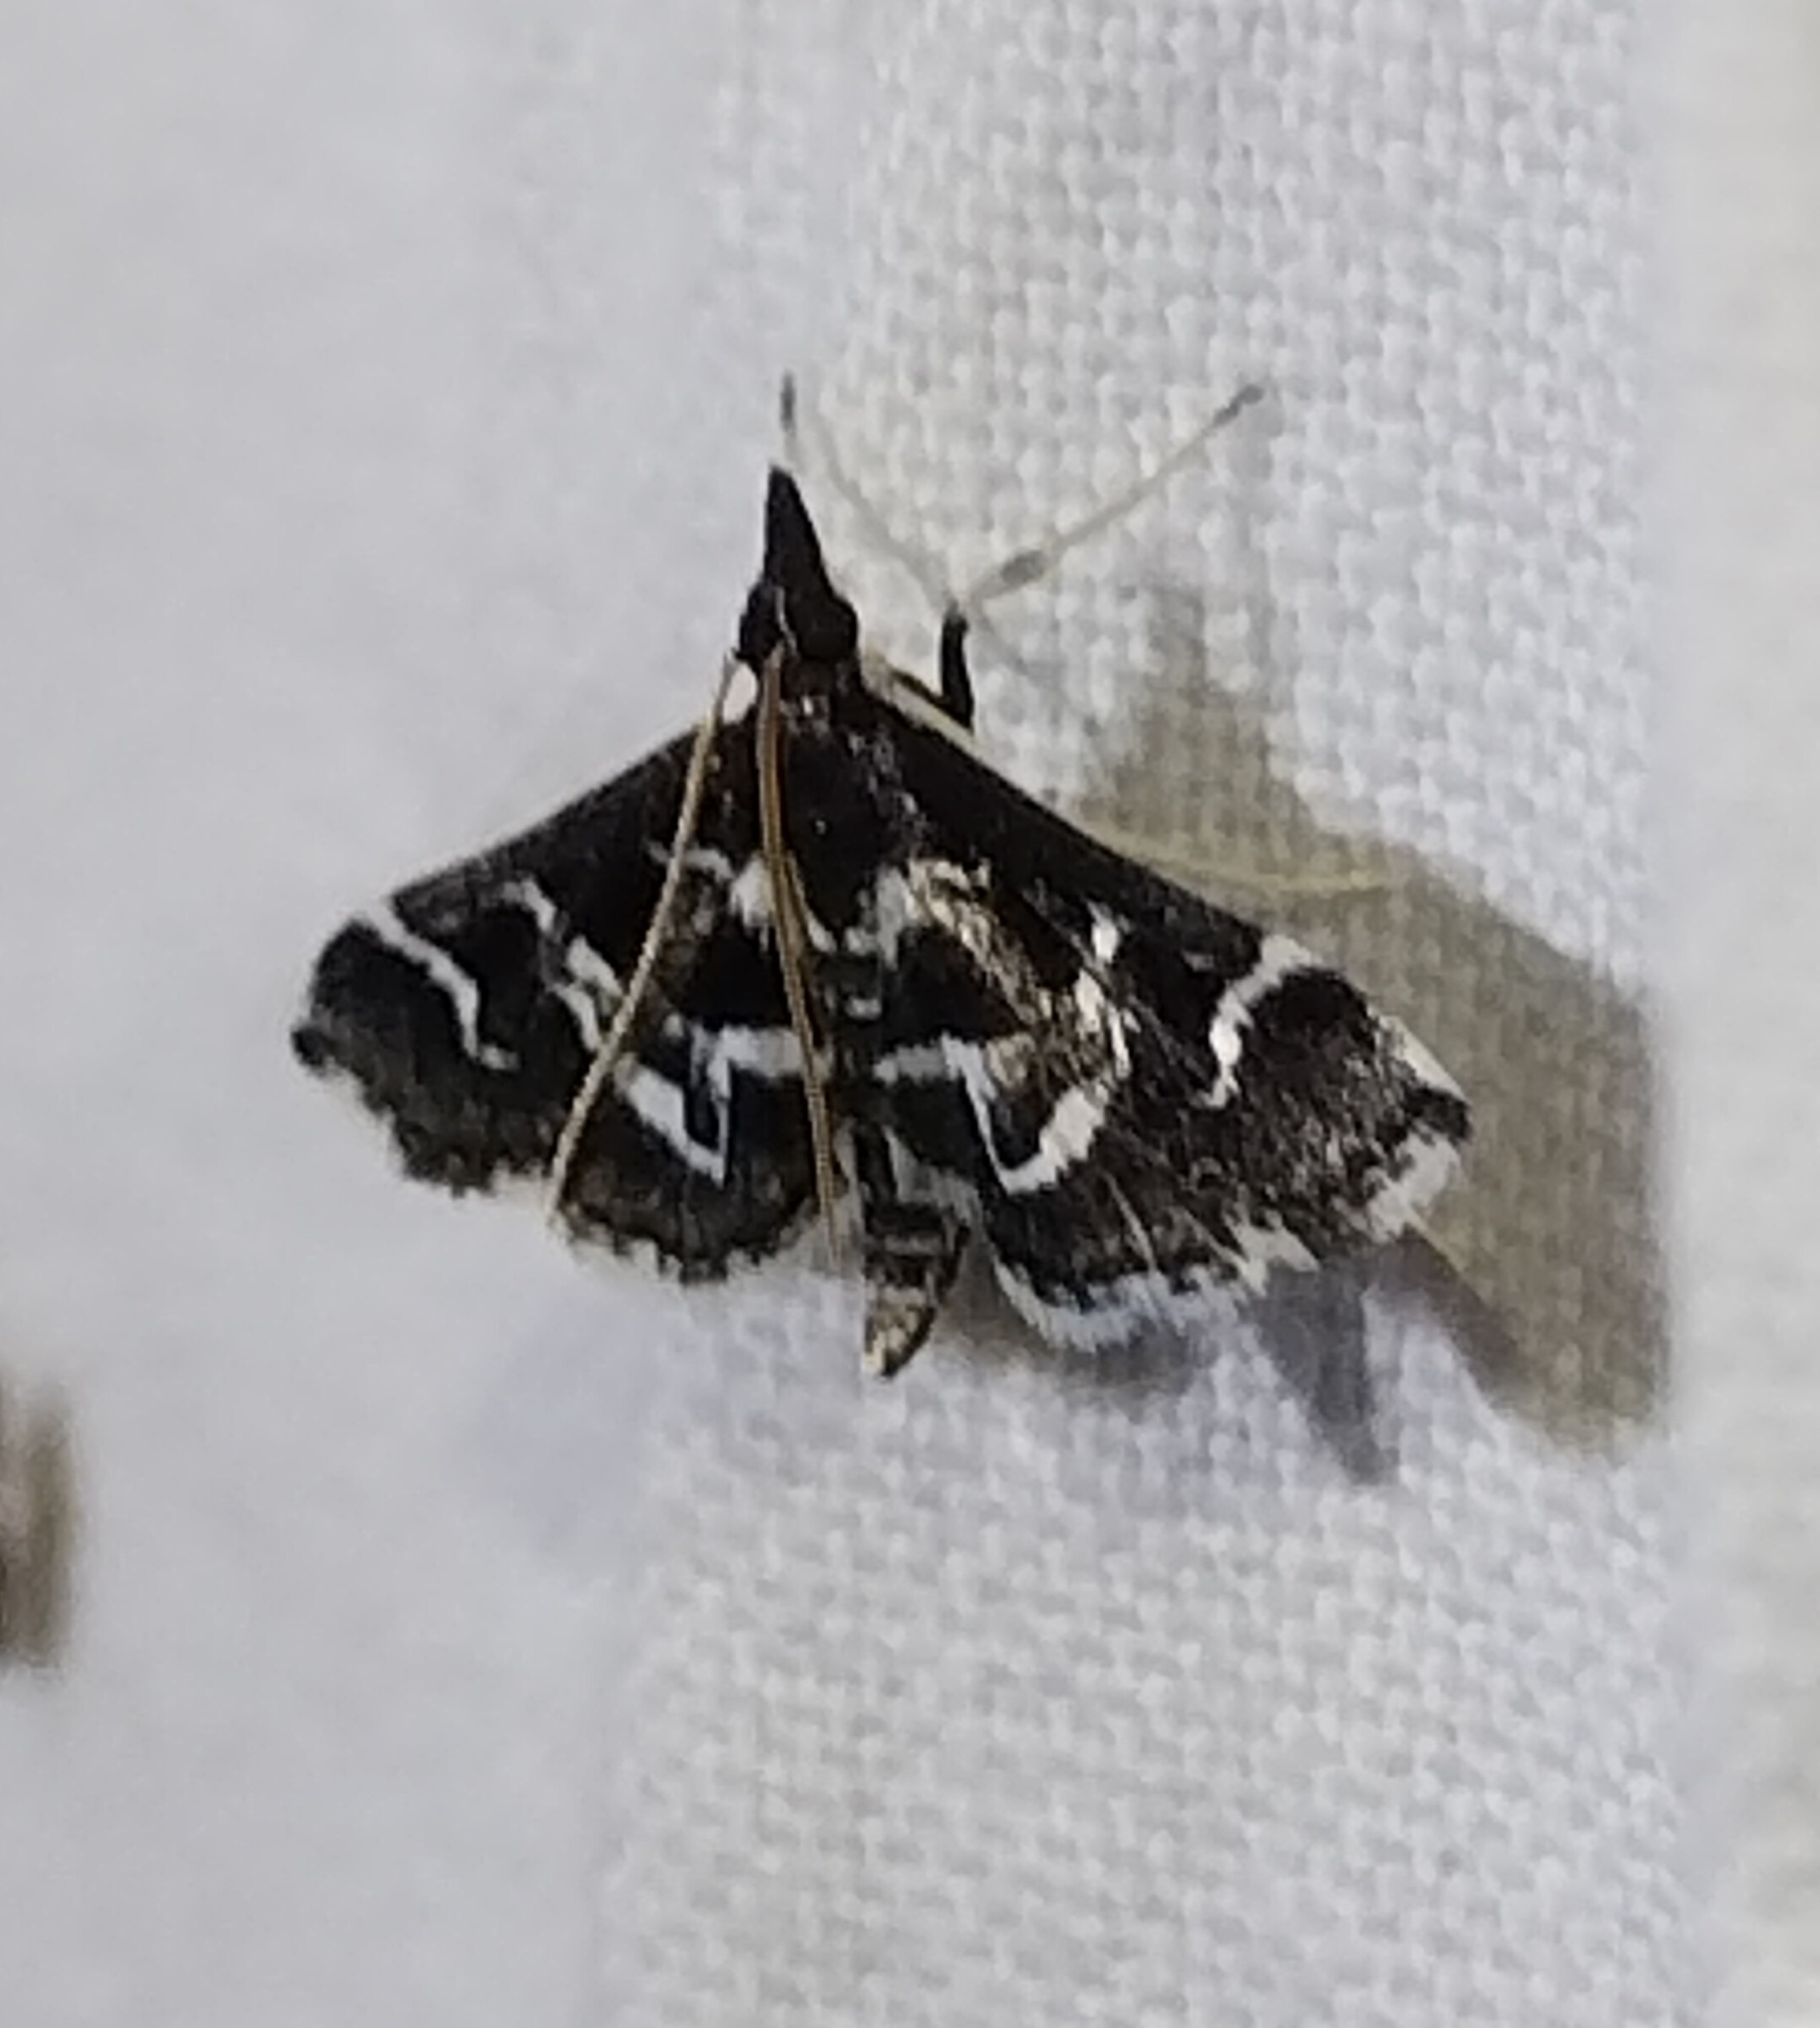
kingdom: Animalia
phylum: Arthropoda
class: Insecta
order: Lepidoptera
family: Crambidae
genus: Diasemiodes
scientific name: Diasemiodes janassialis
